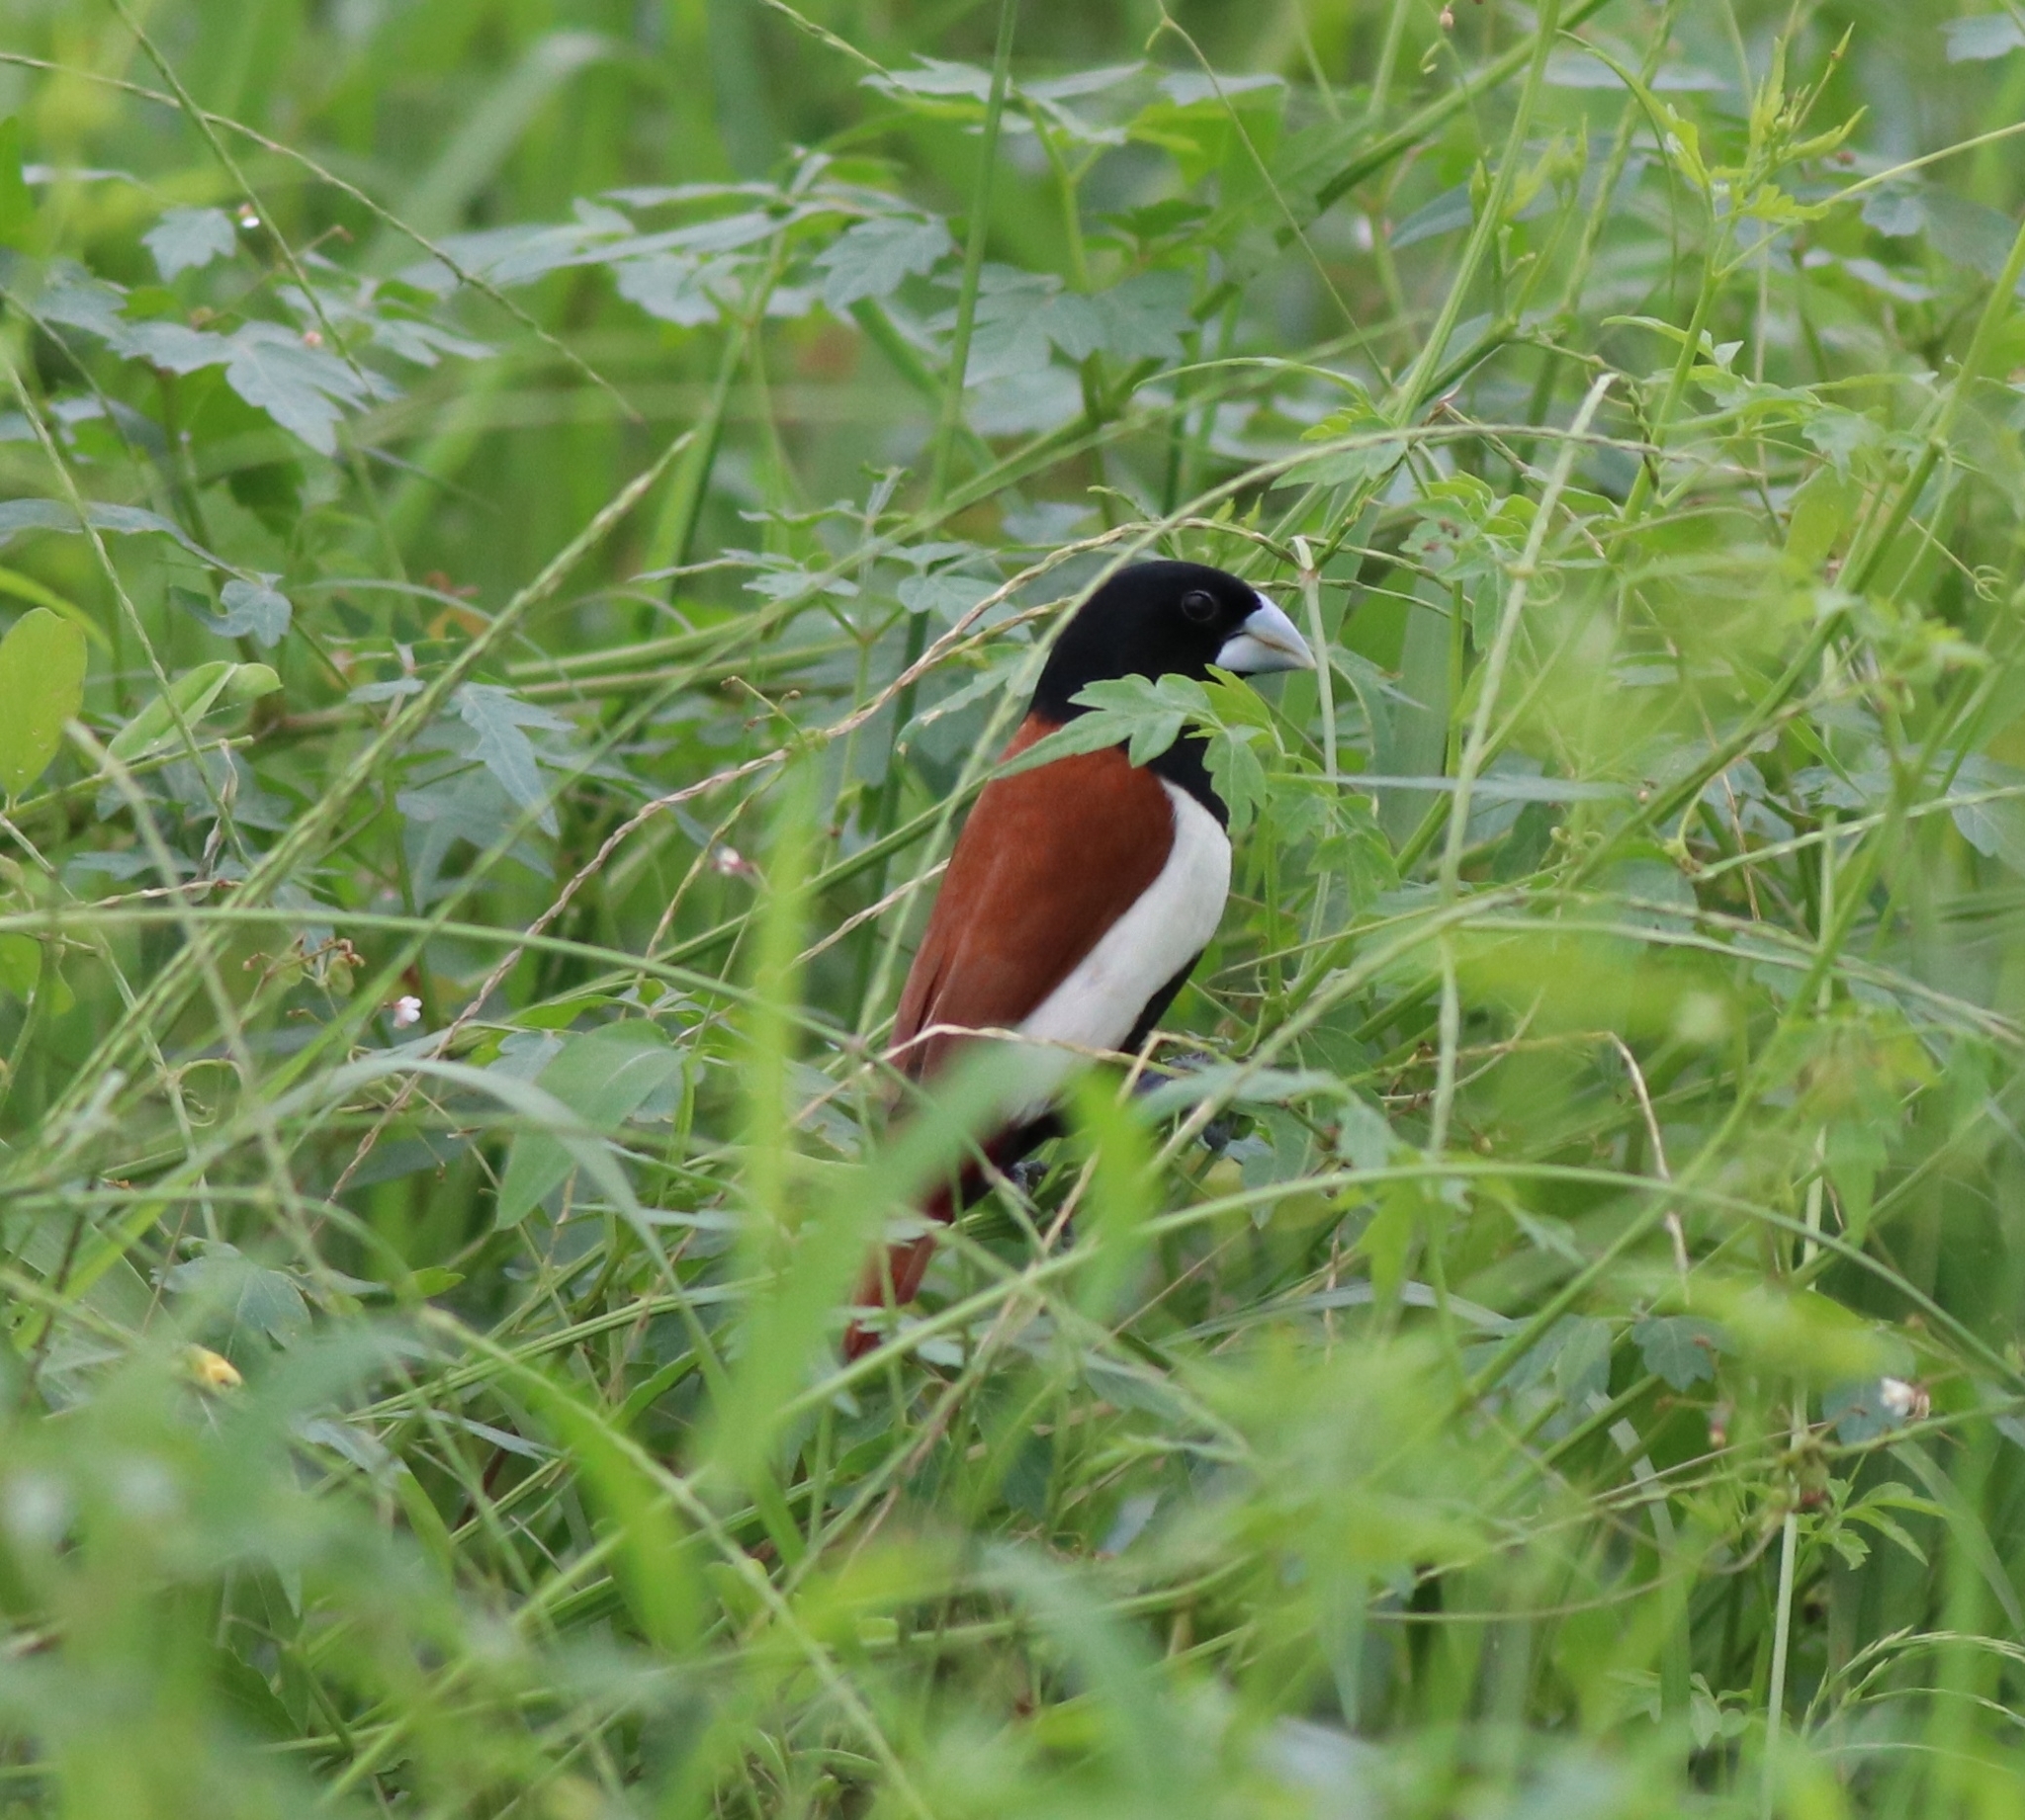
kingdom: Animalia
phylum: Chordata
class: Aves
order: Passeriformes
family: Estrildidae
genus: Lonchura
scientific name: Lonchura malacca
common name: Tricolored munia
